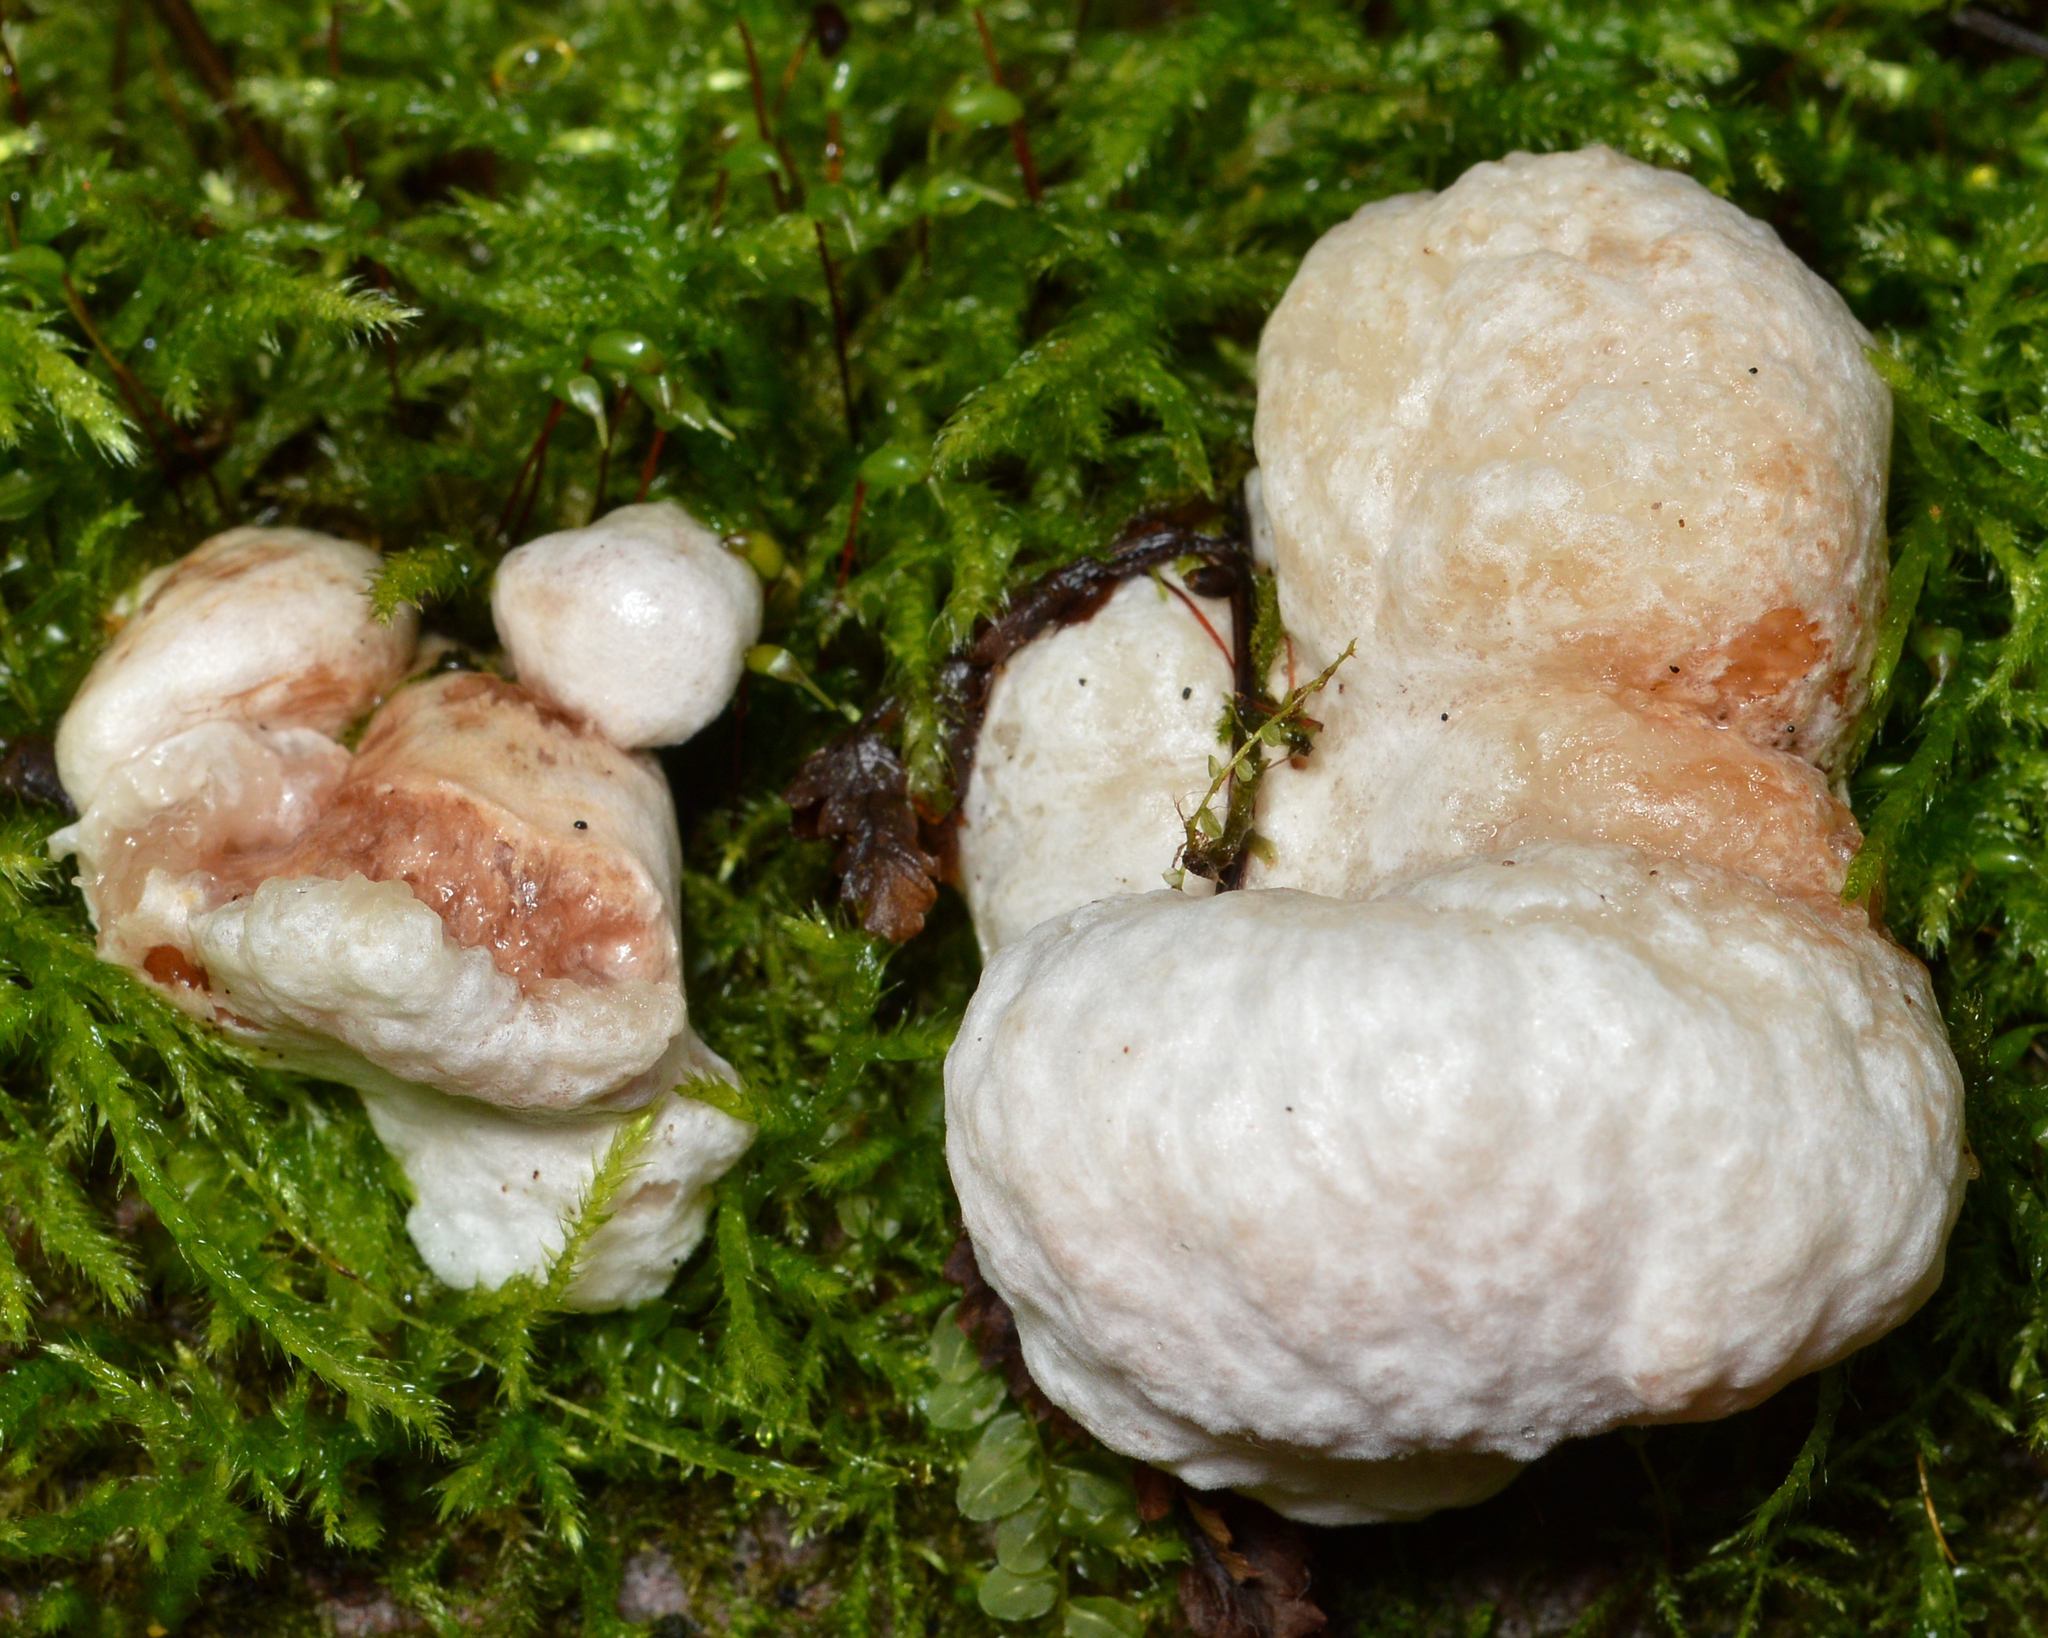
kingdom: Fungi
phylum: Basidiomycota
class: Agaricomycetes
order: Agaricales
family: Entolomataceae
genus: Entoloma
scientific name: Entoloma abortivum
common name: Aborted entoloma
